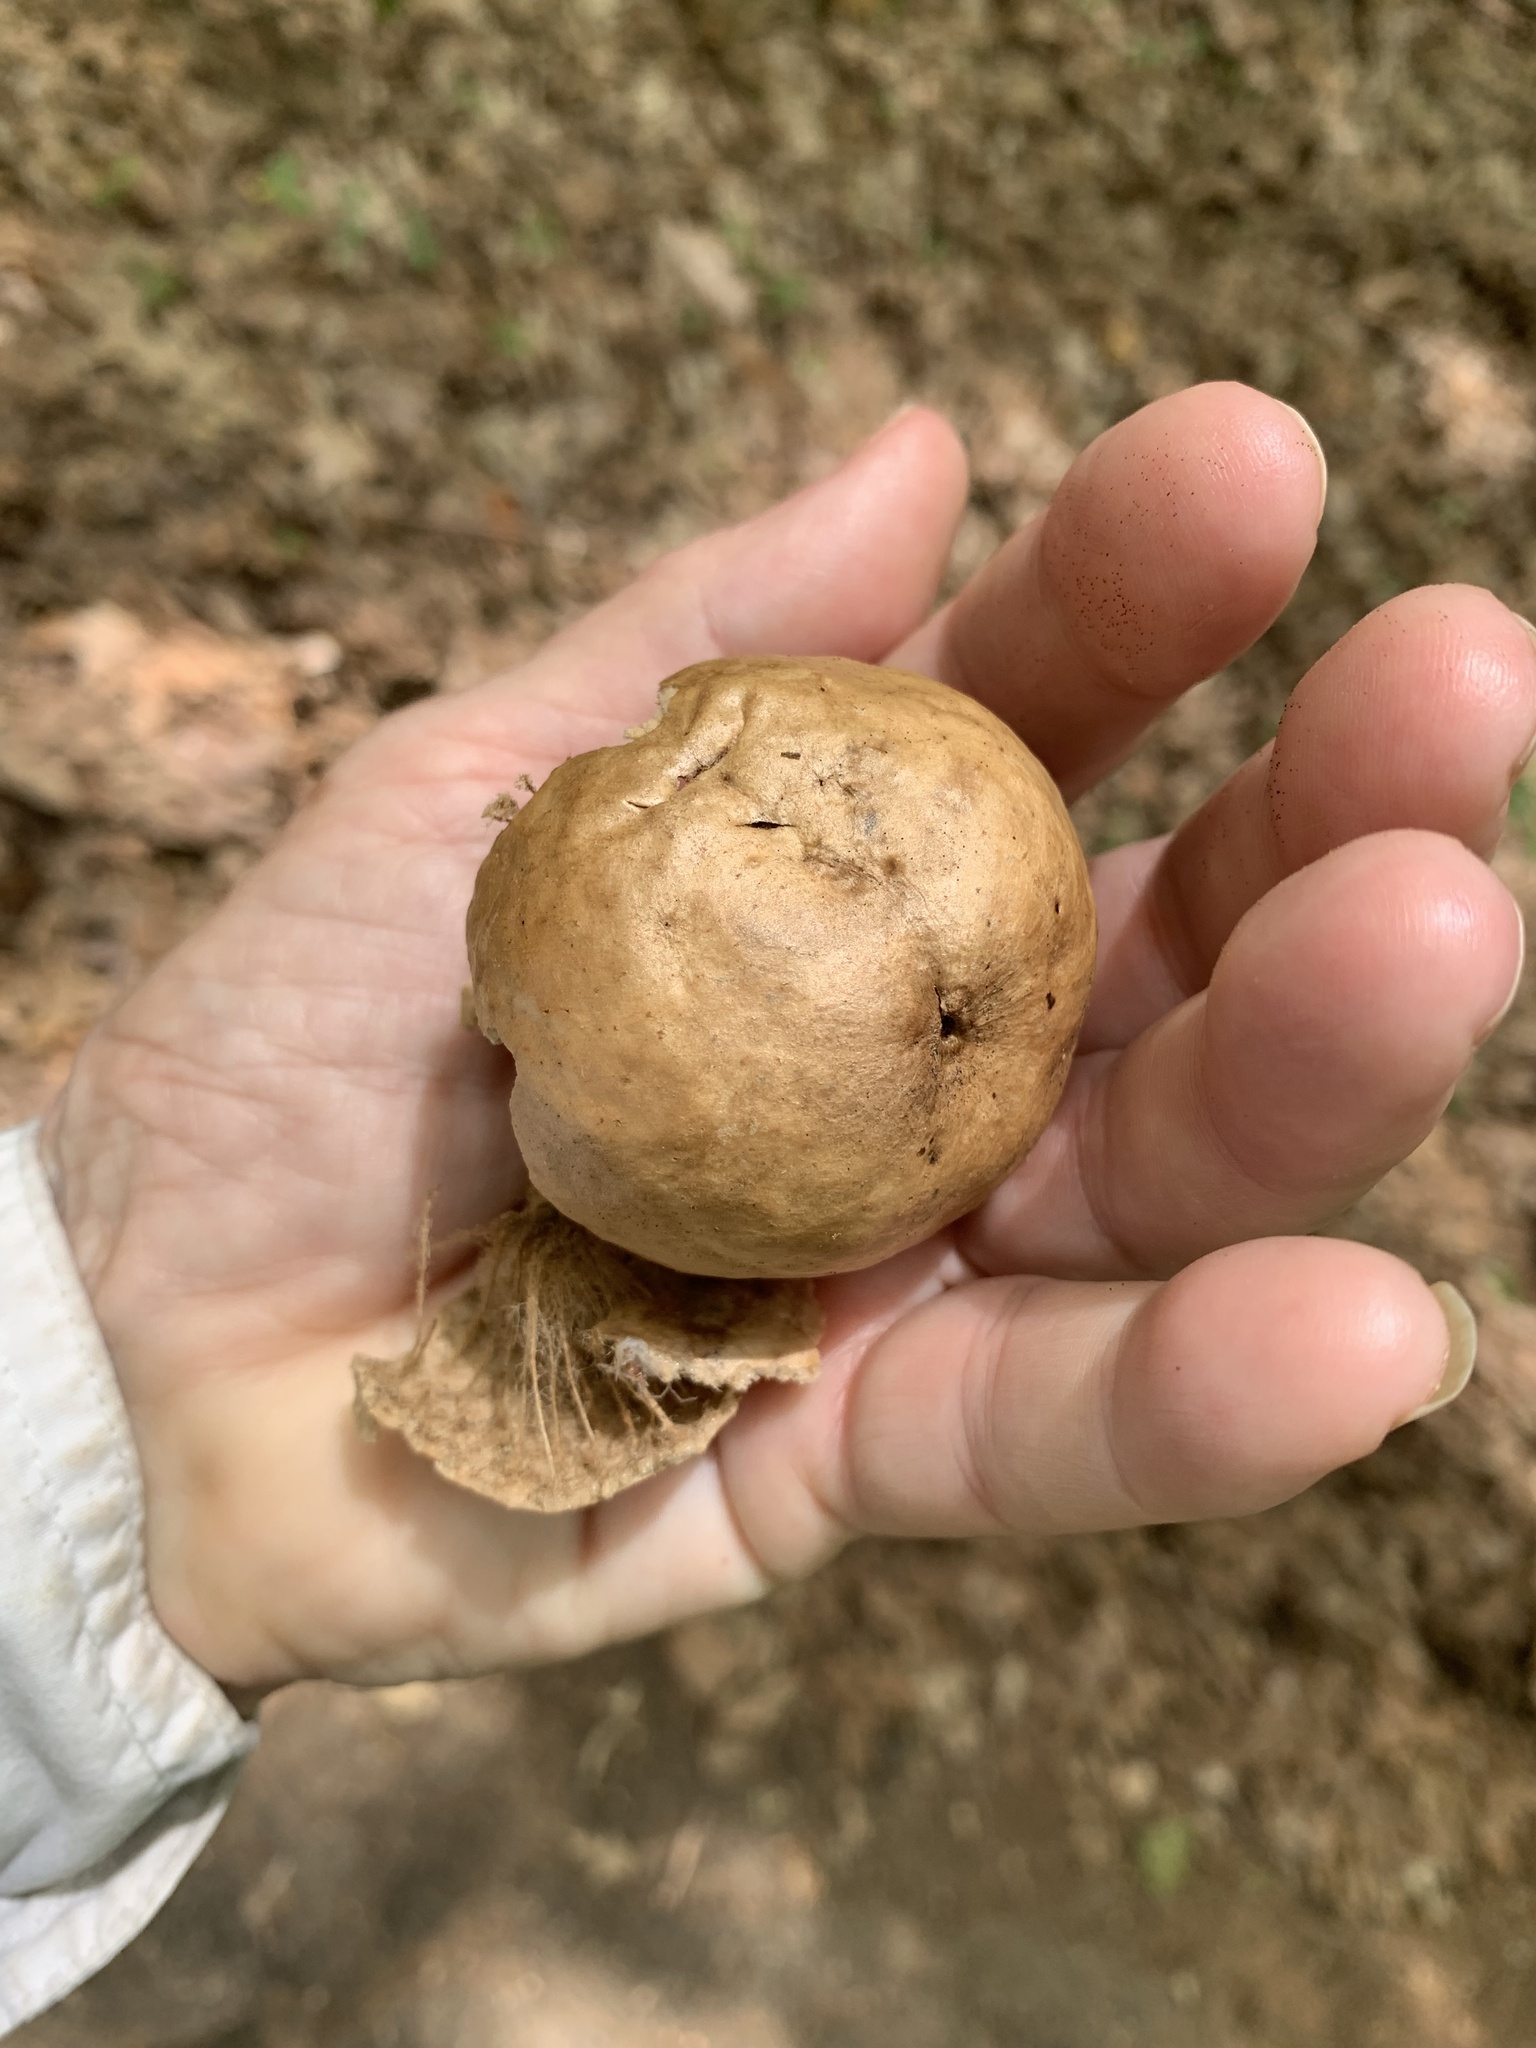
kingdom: Animalia
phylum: Arthropoda
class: Insecta
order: Hymenoptera
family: Cynipidae
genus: Amphibolips
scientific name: Amphibolips
